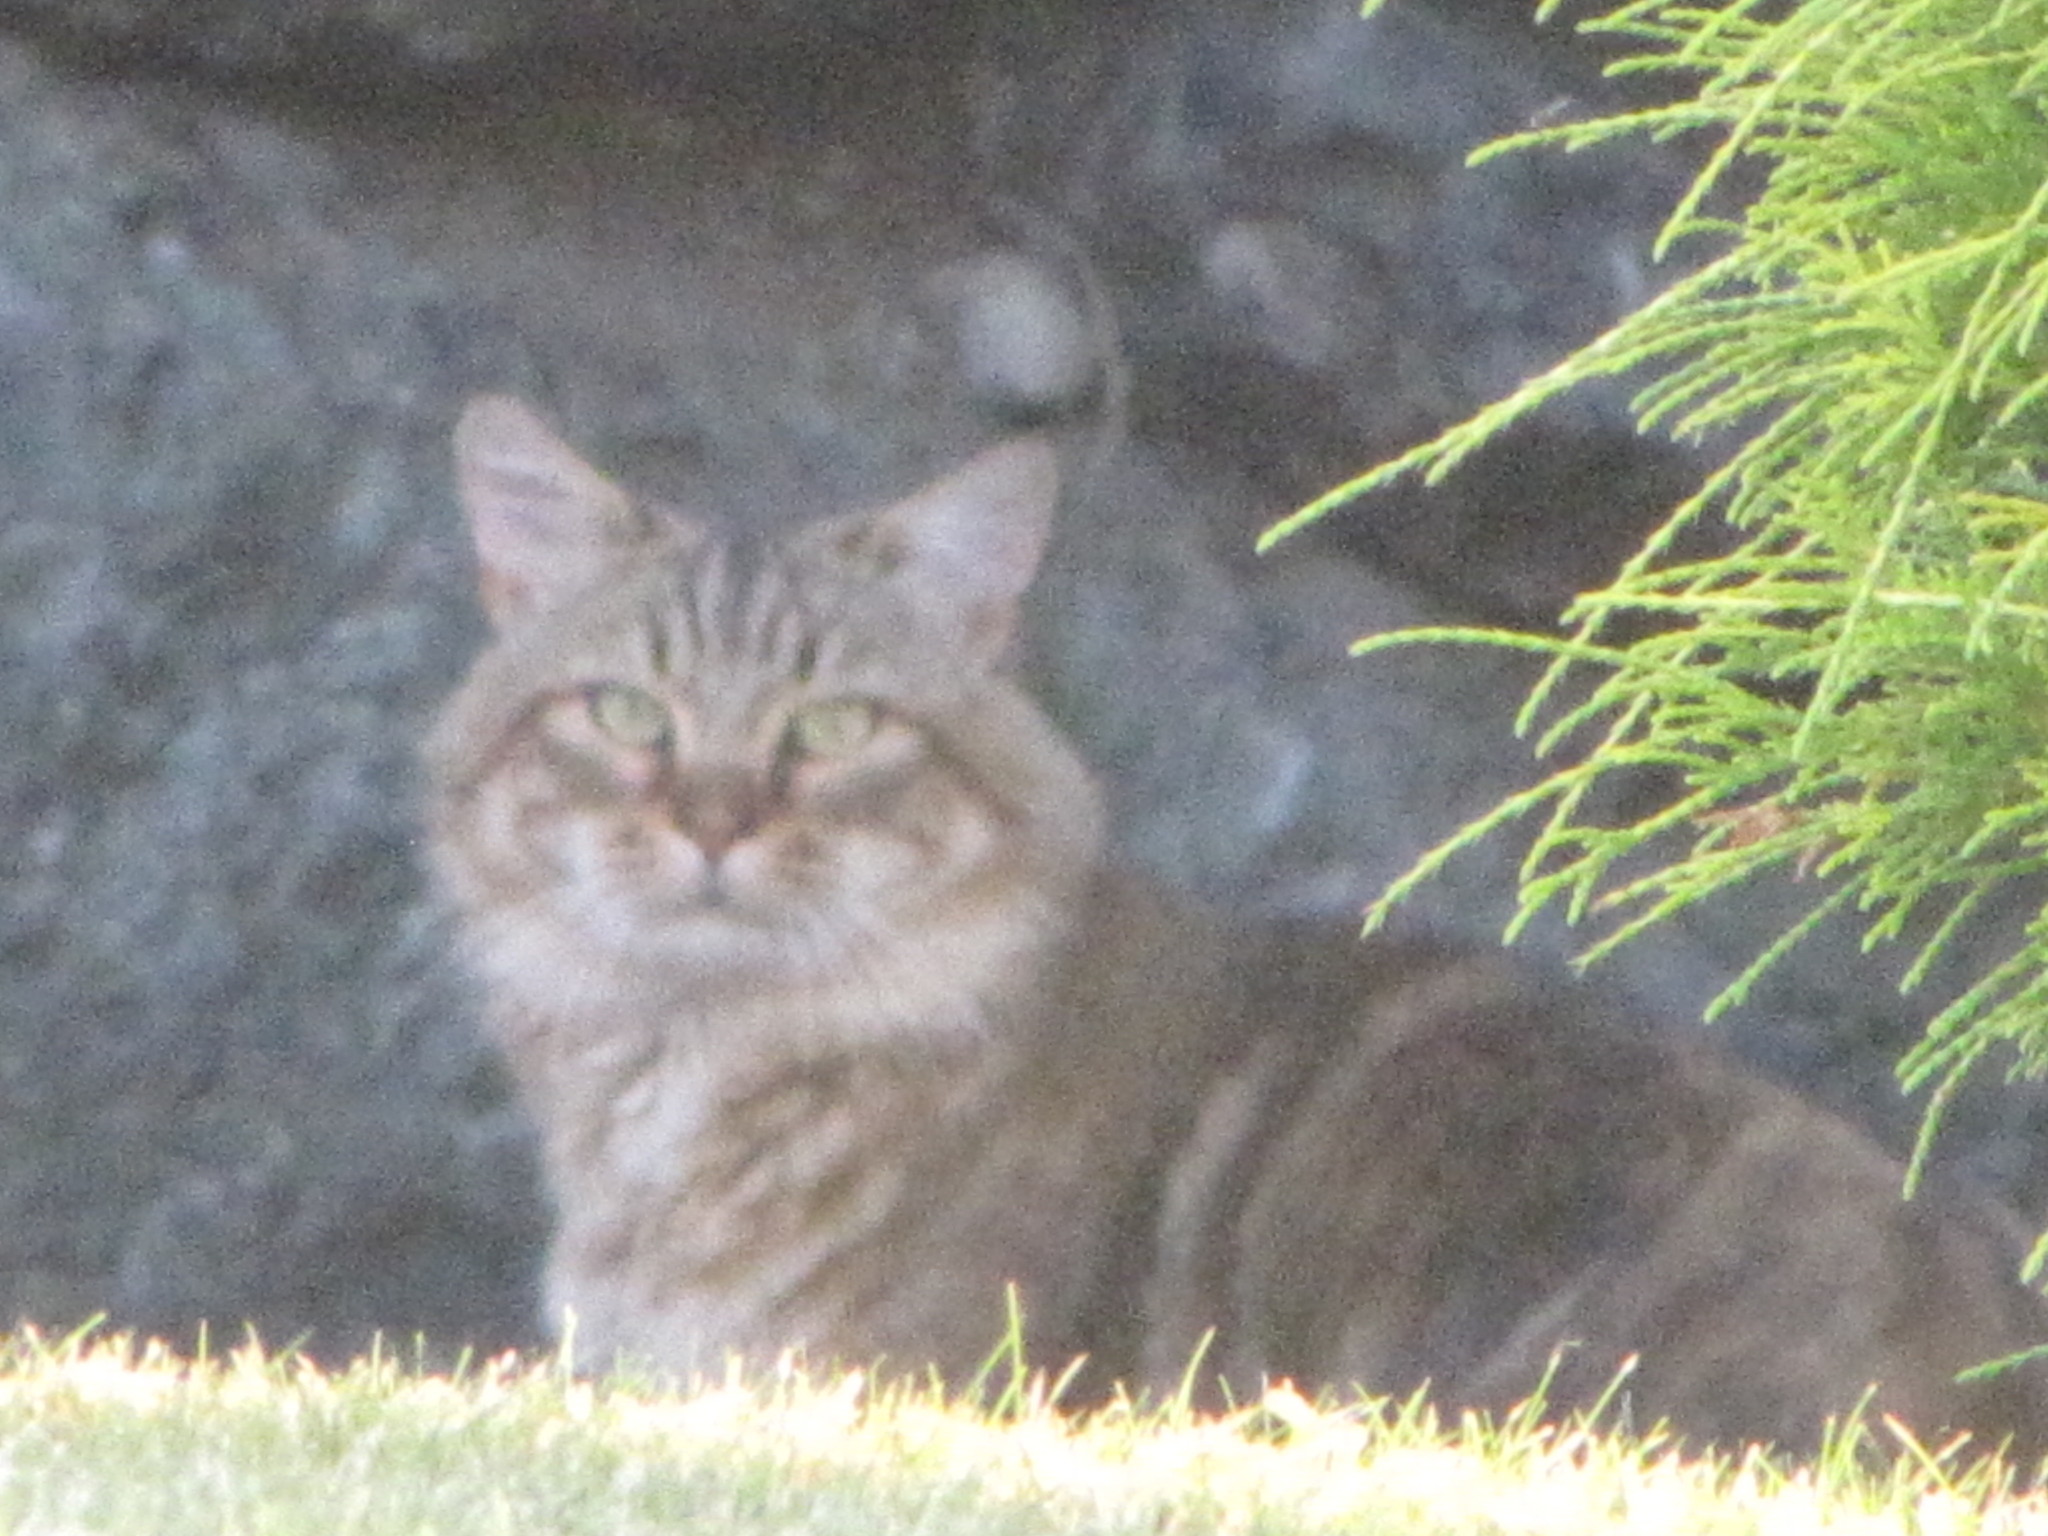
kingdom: Animalia
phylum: Chordata
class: Mammalia
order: Carnivora
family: Felidae
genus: Felis
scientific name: Felis catus
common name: Domestic cat
